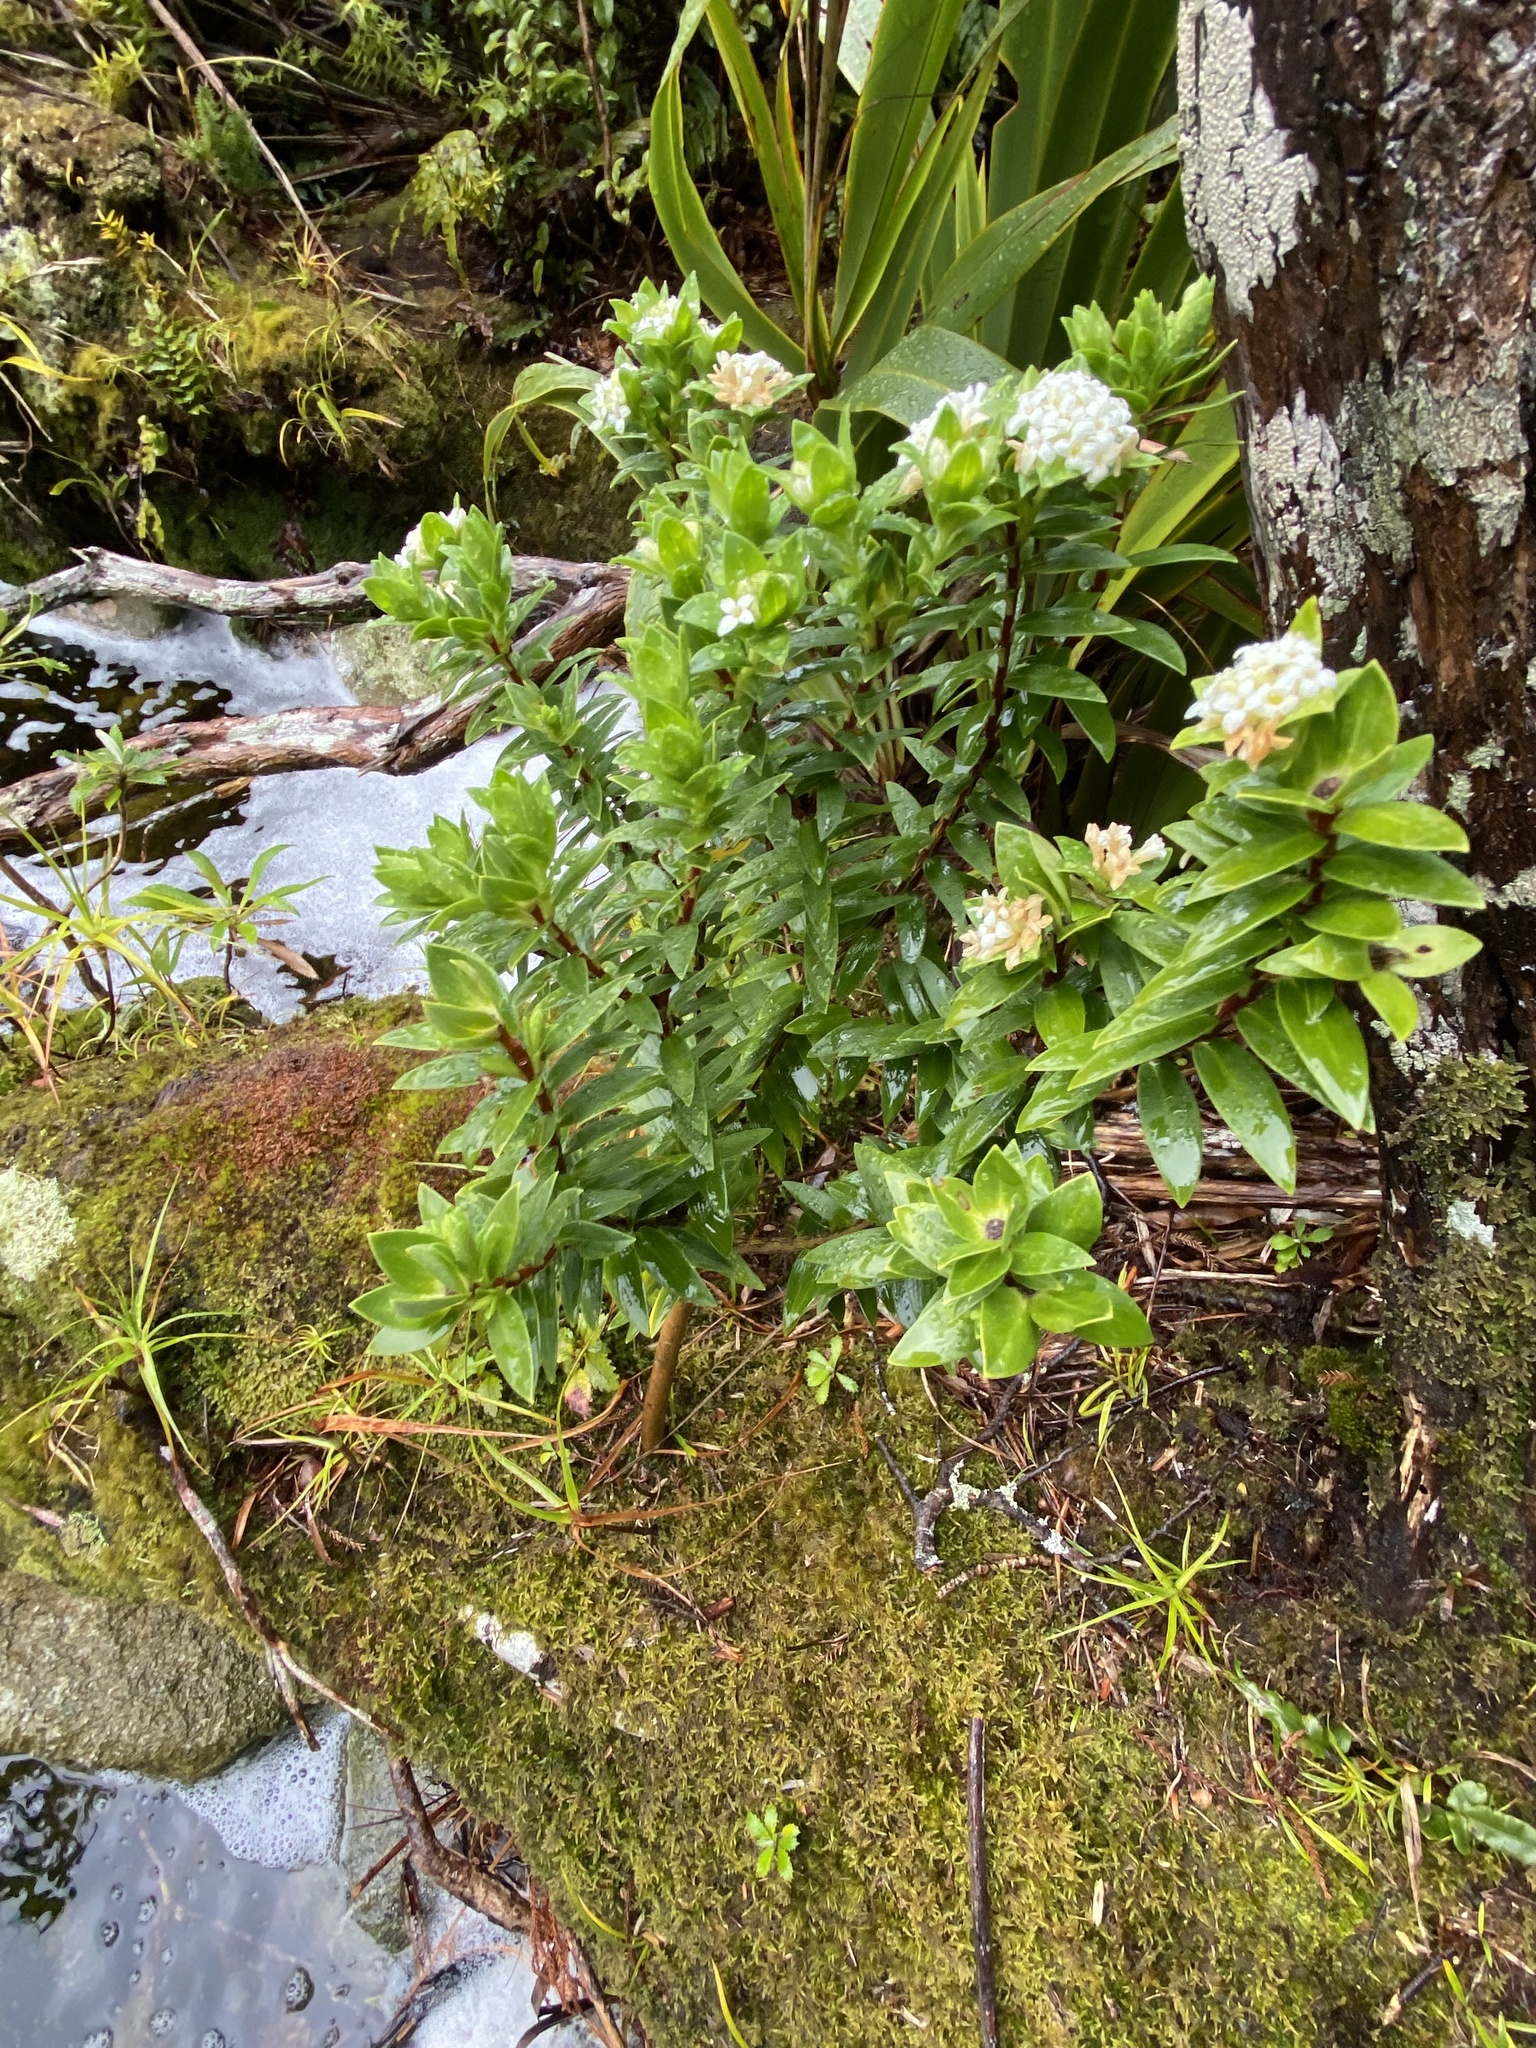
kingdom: Plantae
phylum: Tracheophyta
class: Magnoliopsida
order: Malvales
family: Thymelaeaceae
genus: Pimelea
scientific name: Pimelea gnidia
